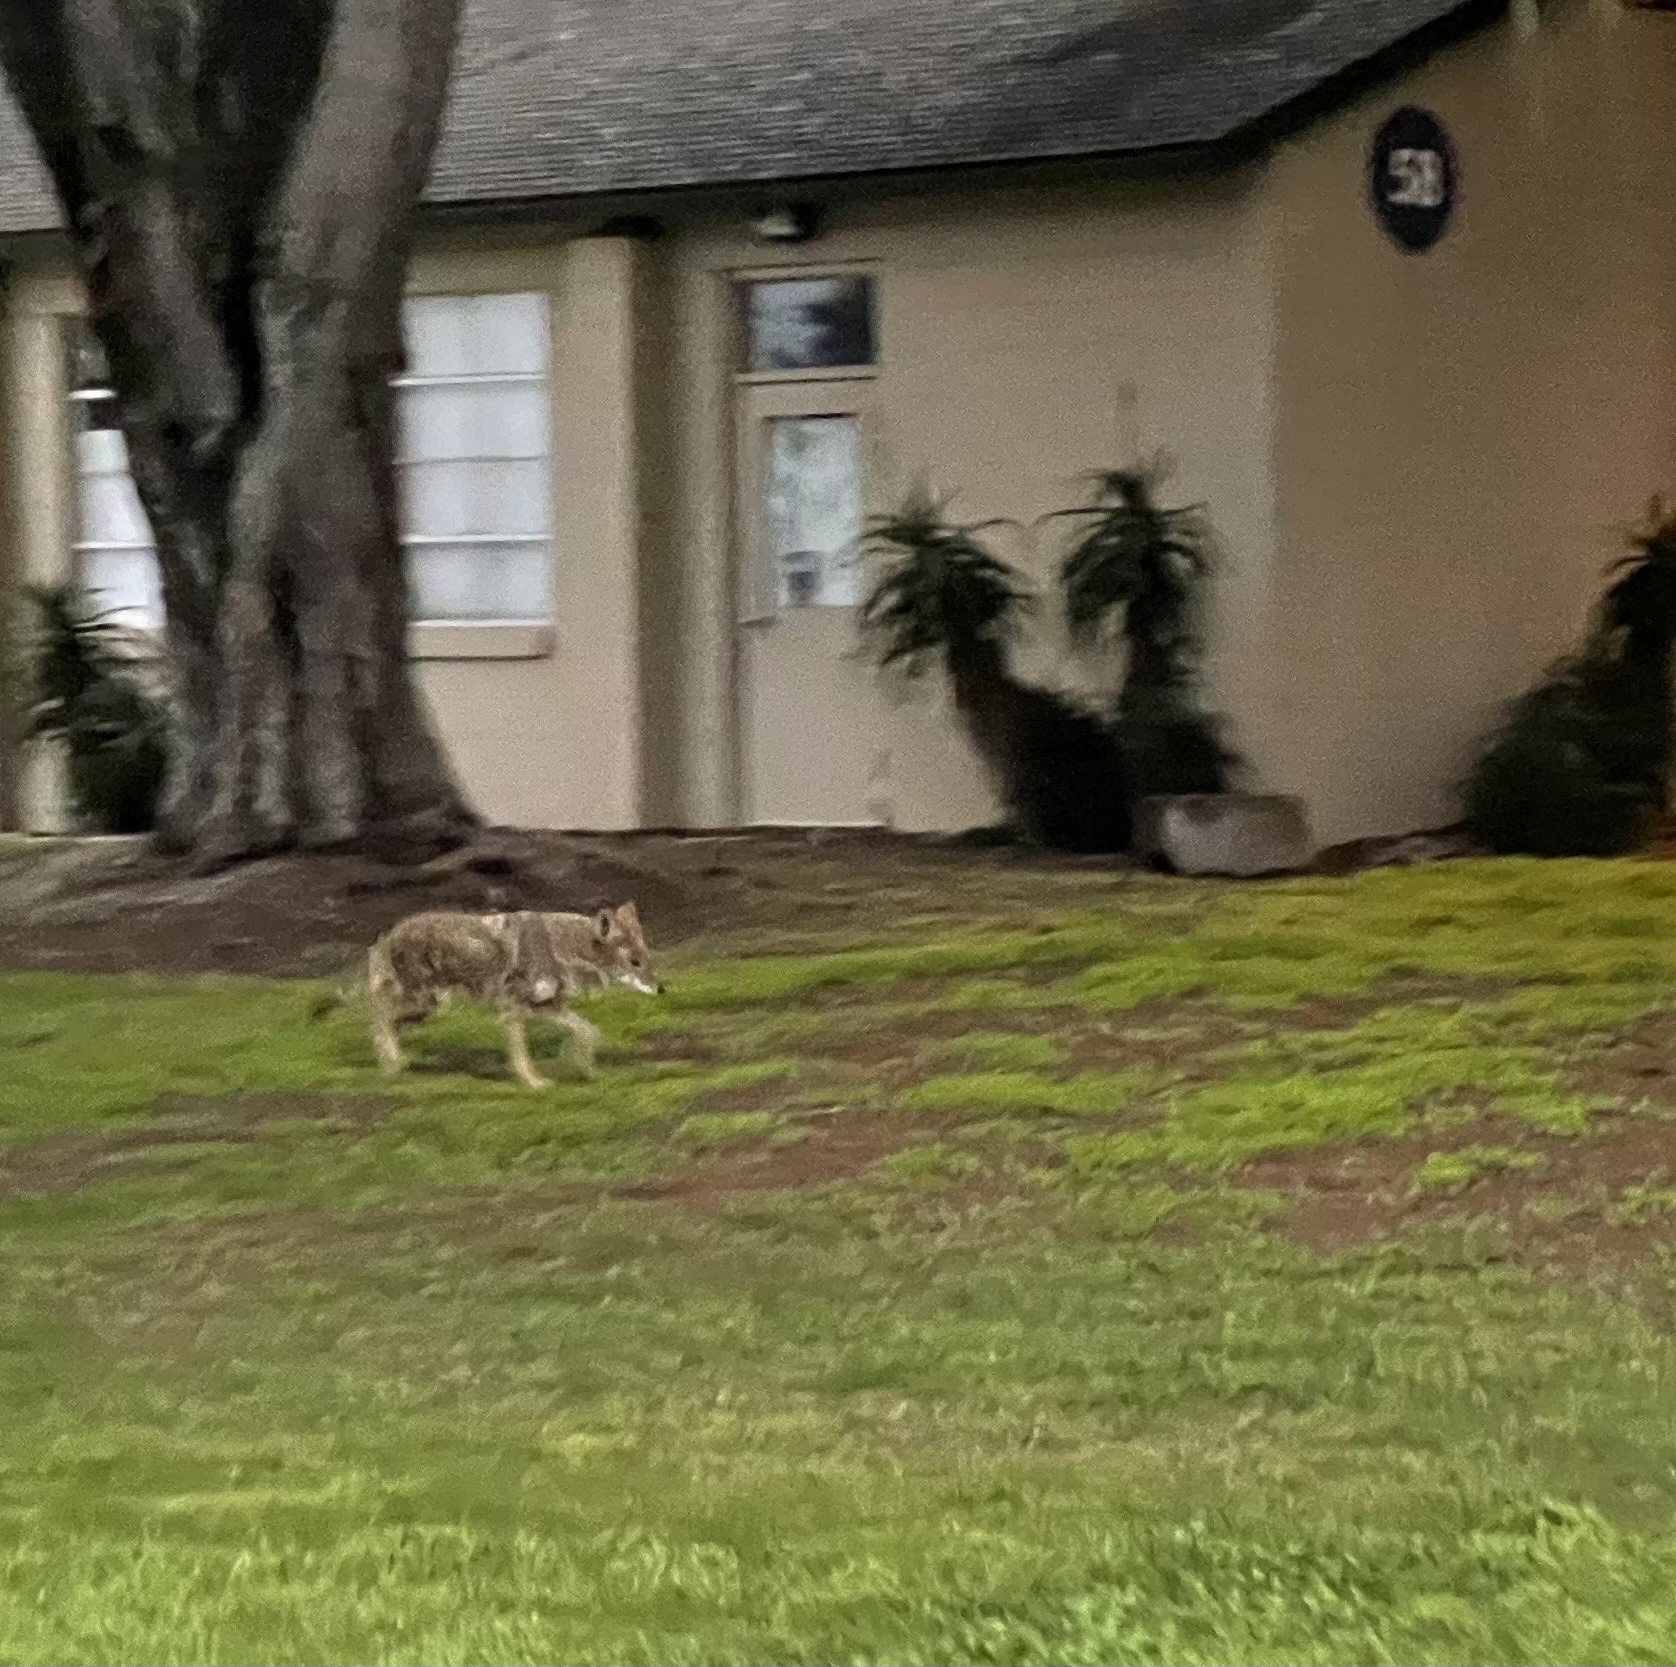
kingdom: Animalia
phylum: Chordata
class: Mammalia
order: Carnivora
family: Canidae
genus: Canis
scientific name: Canis latrans
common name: Coyote
